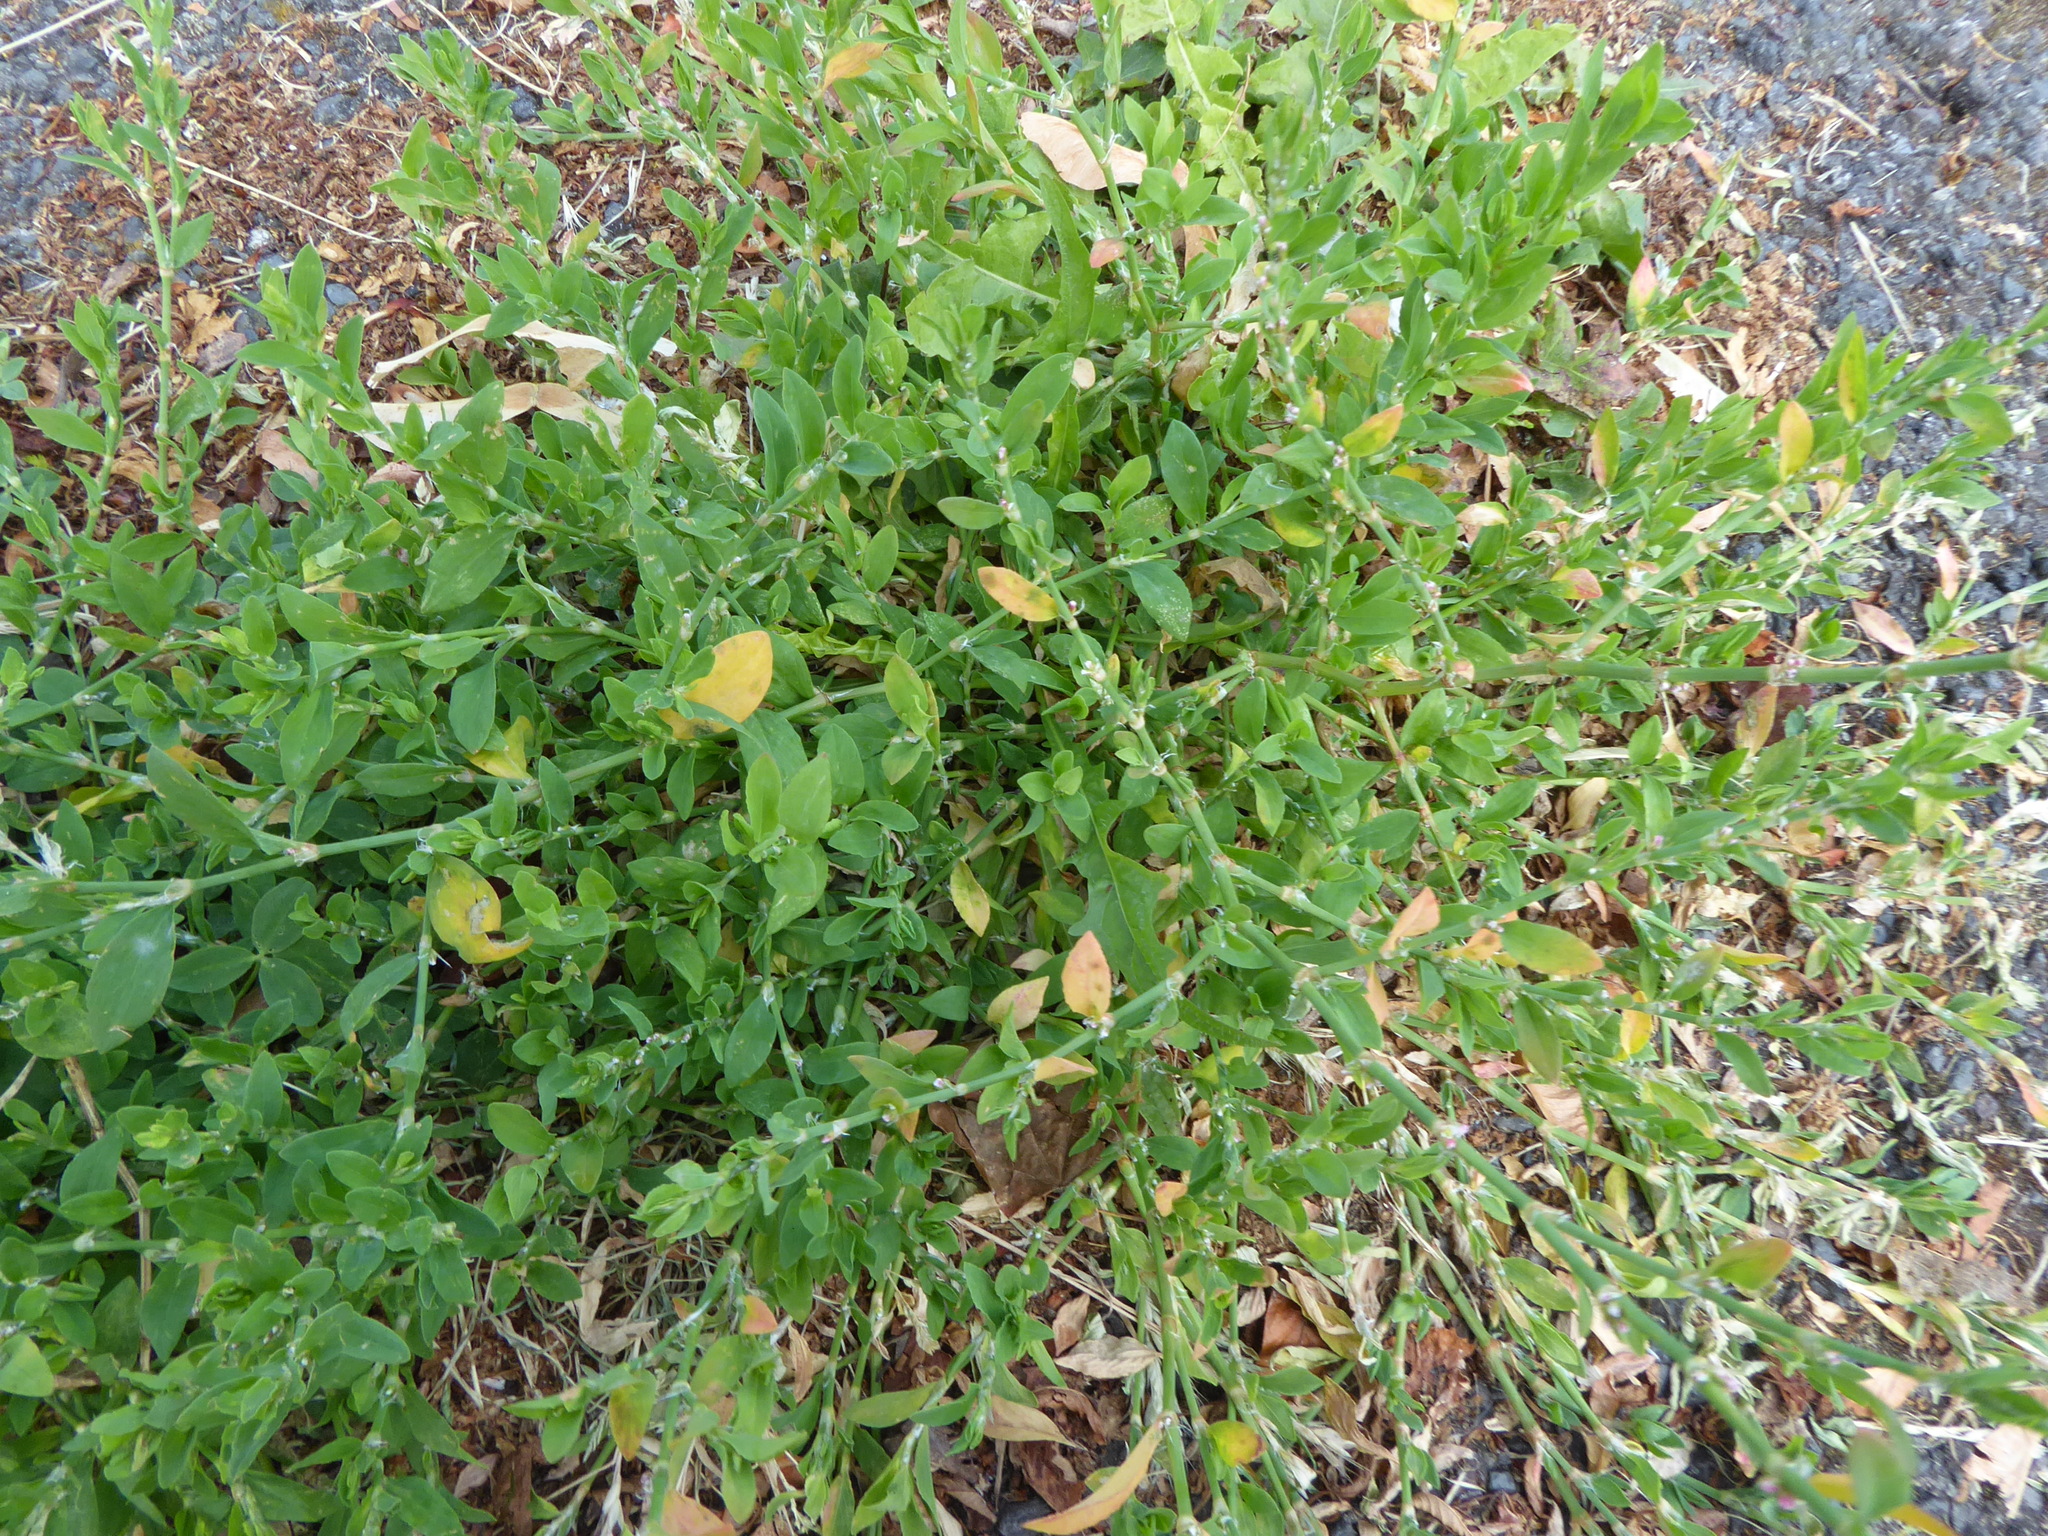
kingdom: Plantae
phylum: Tracheophyta
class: Magnoliopsida
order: Caryophyllales
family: Polygonaceae
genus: Polygonum
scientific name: Polygonum
